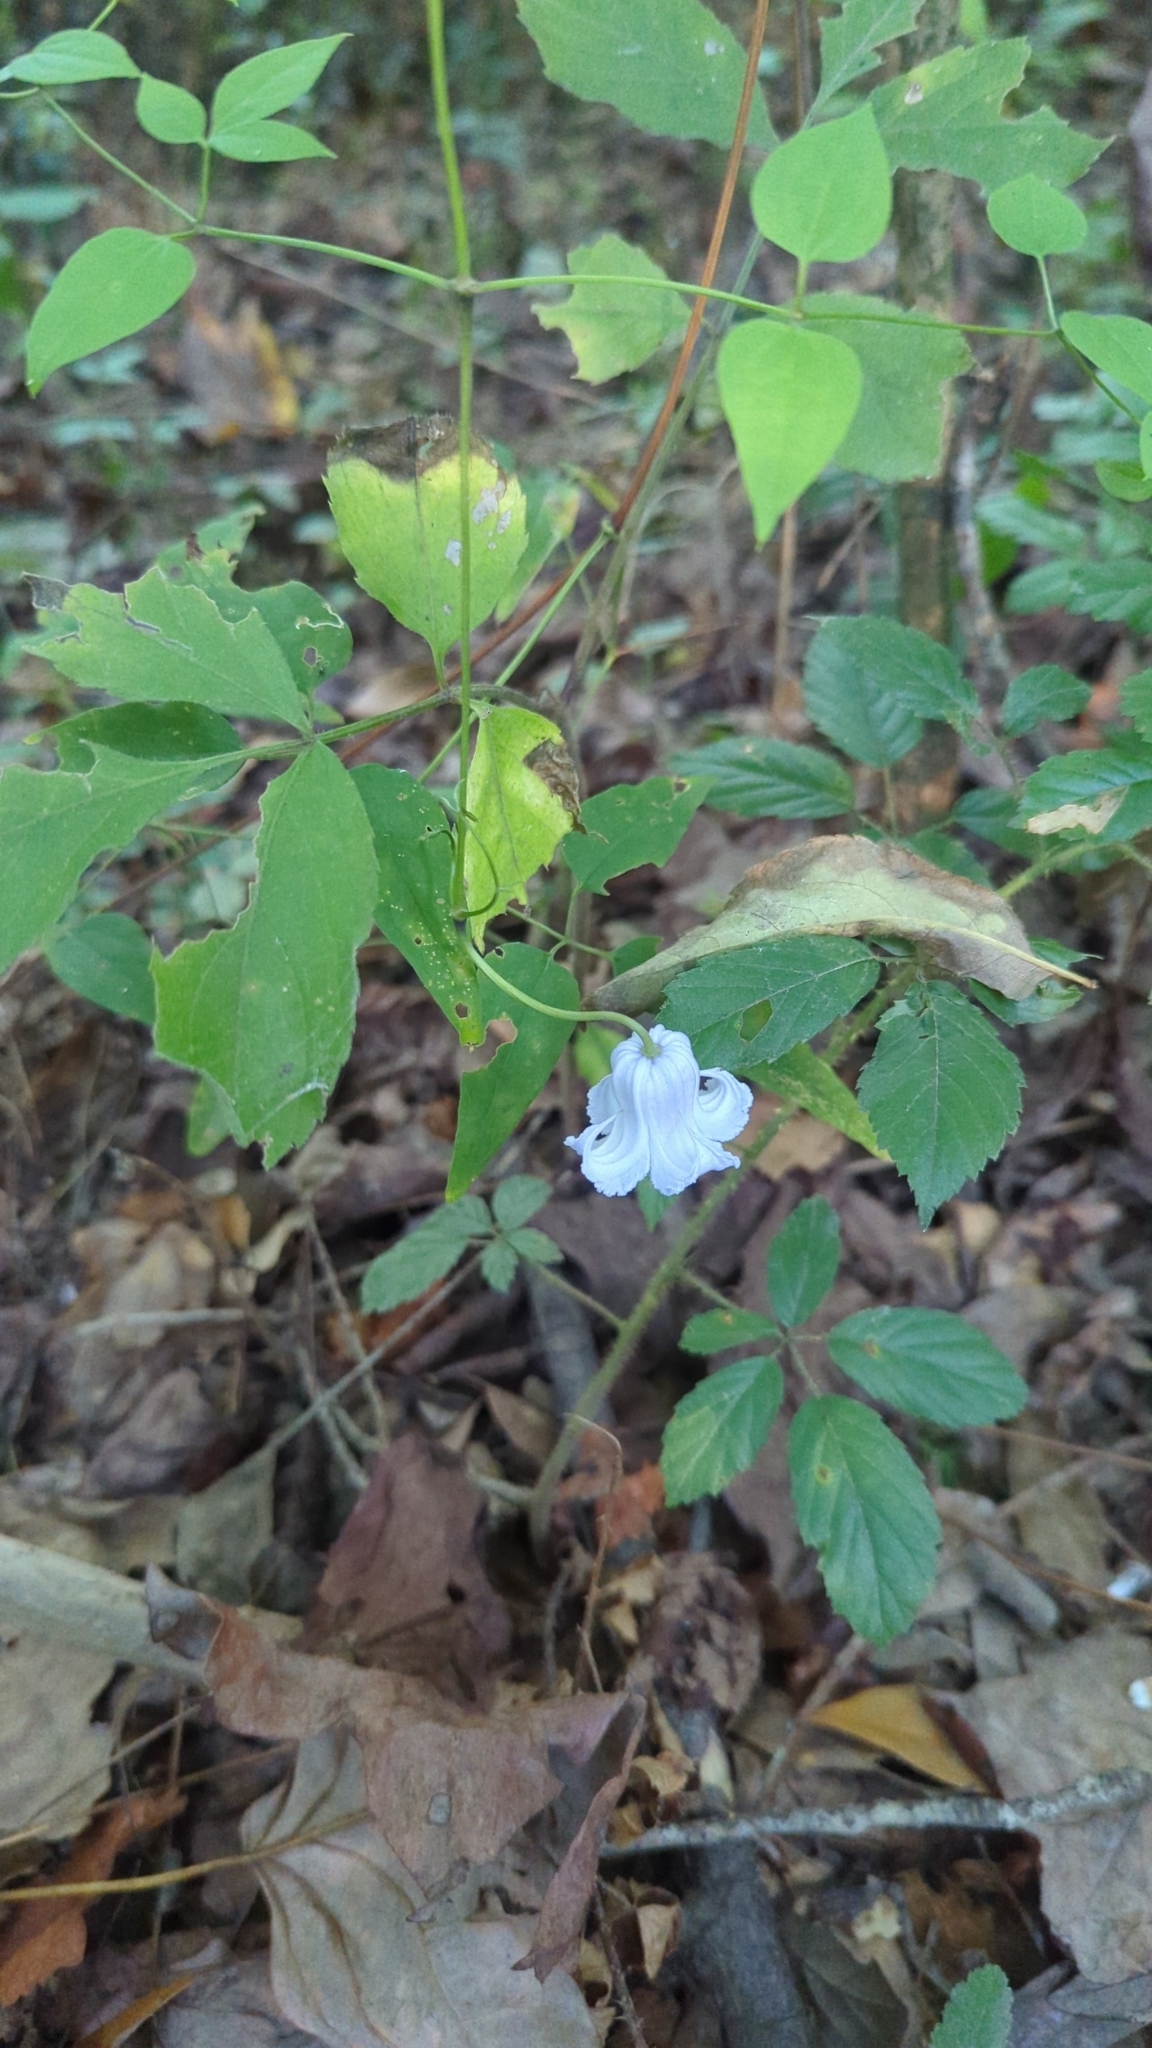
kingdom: Plantae
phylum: Tracheophyta
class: Magnoliopsida
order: Ranunculales
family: Ranunculaceae
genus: Clematis
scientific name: Clematis crispa
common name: Curly clematis
